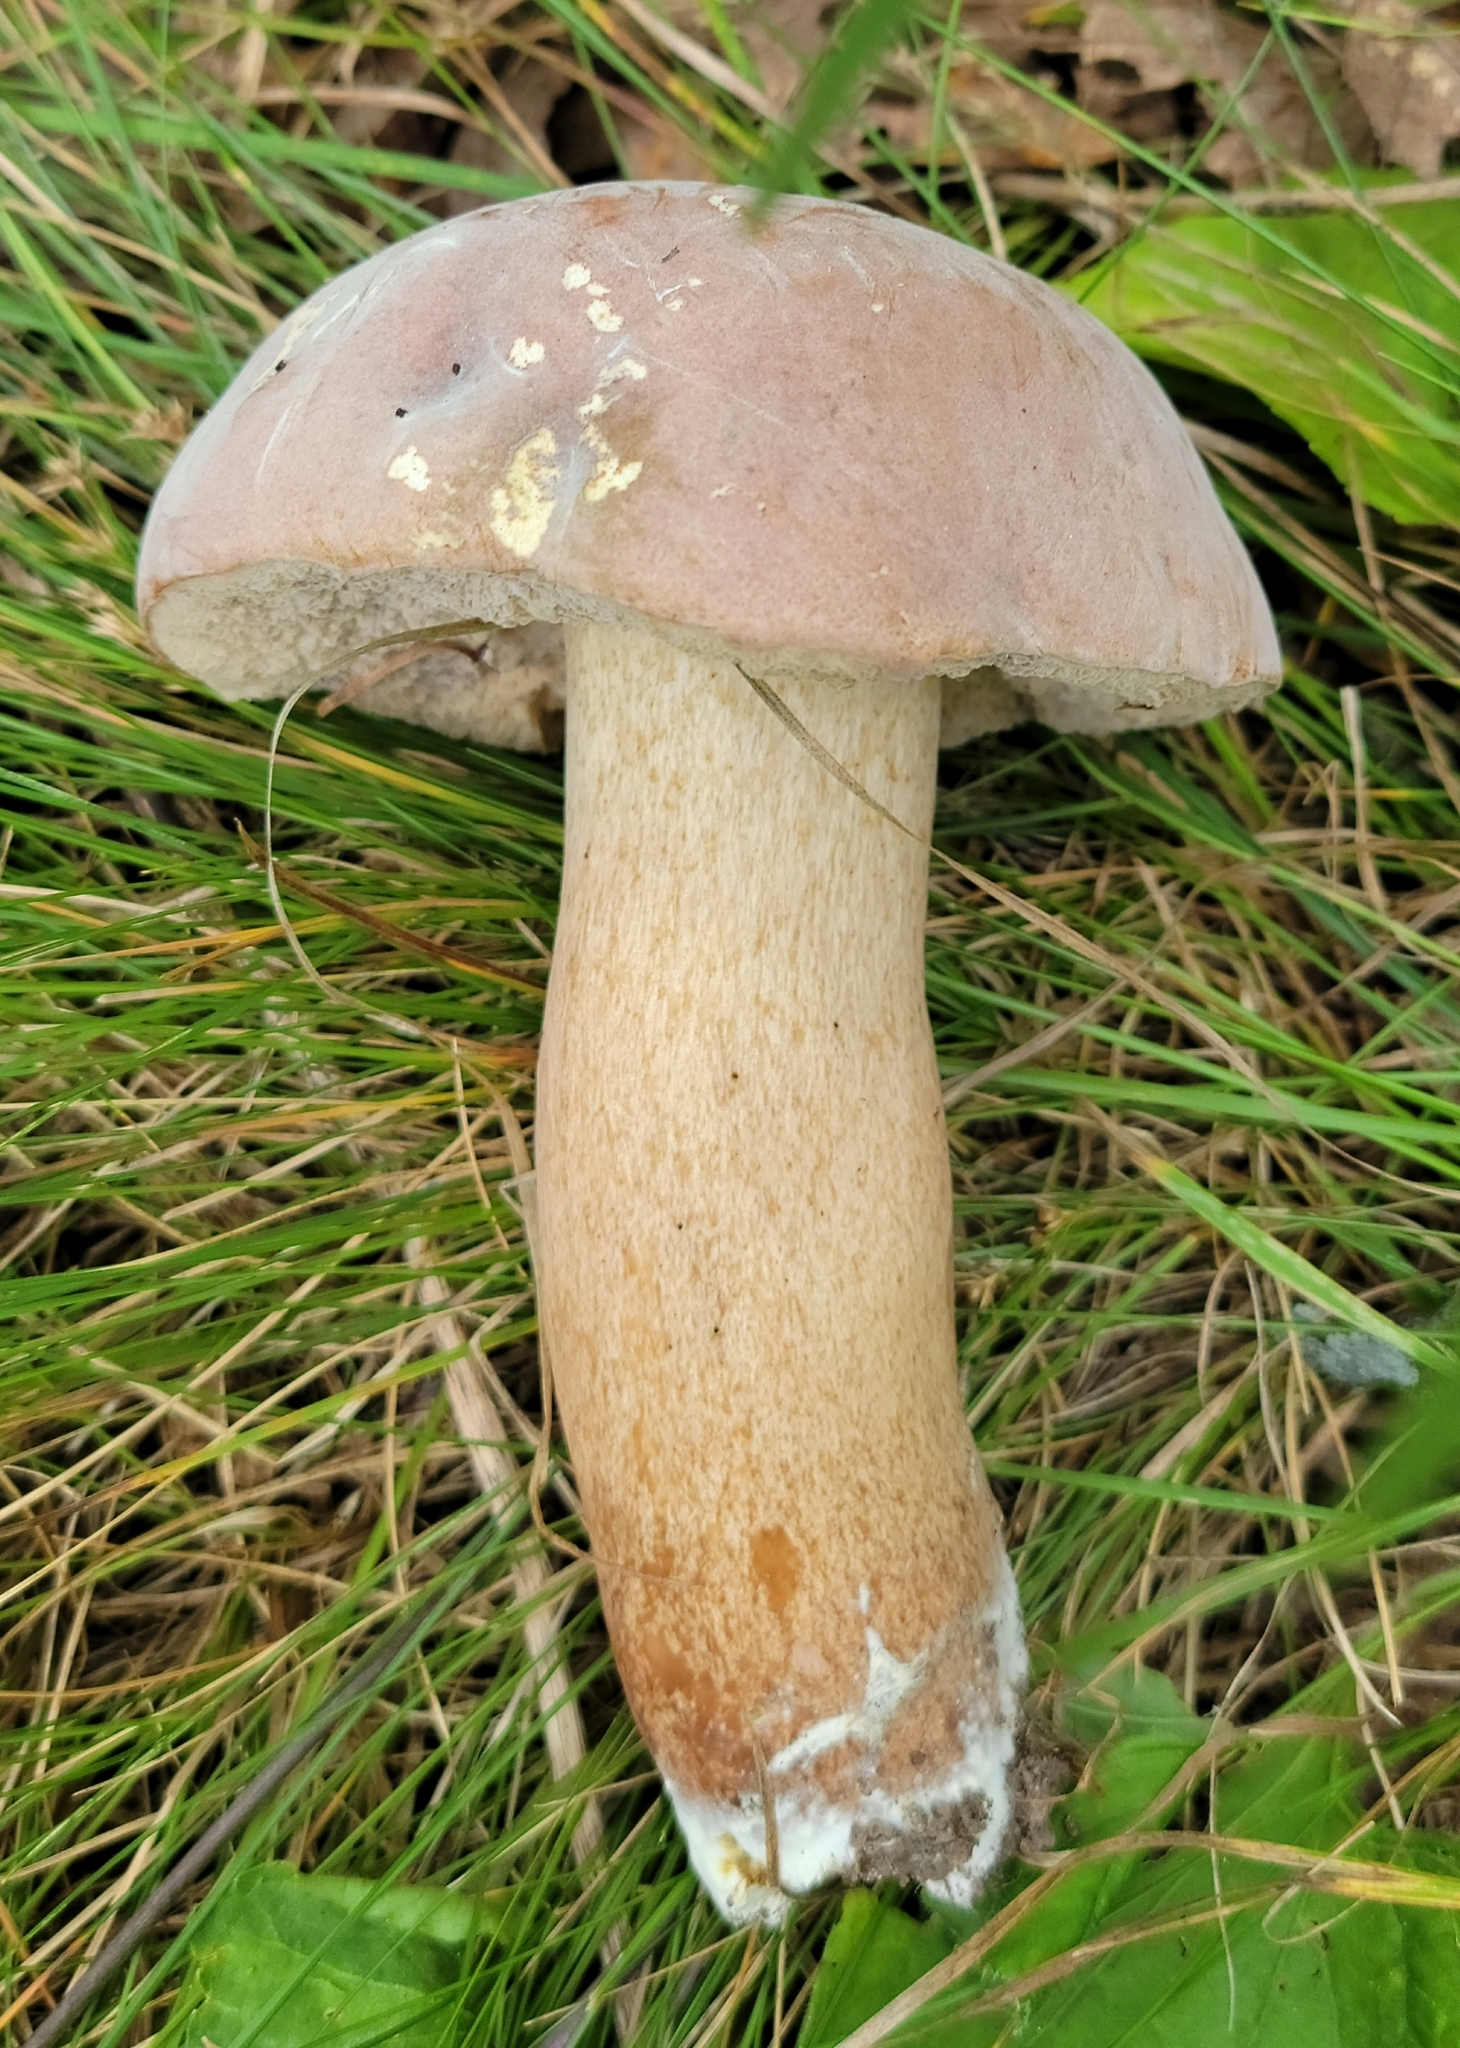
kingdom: Fungi
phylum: Basidiomycota
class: Agaricomycetes
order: Boletales
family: Boletaceae
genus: Porphyrellus
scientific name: Porphyrellus indecisus
